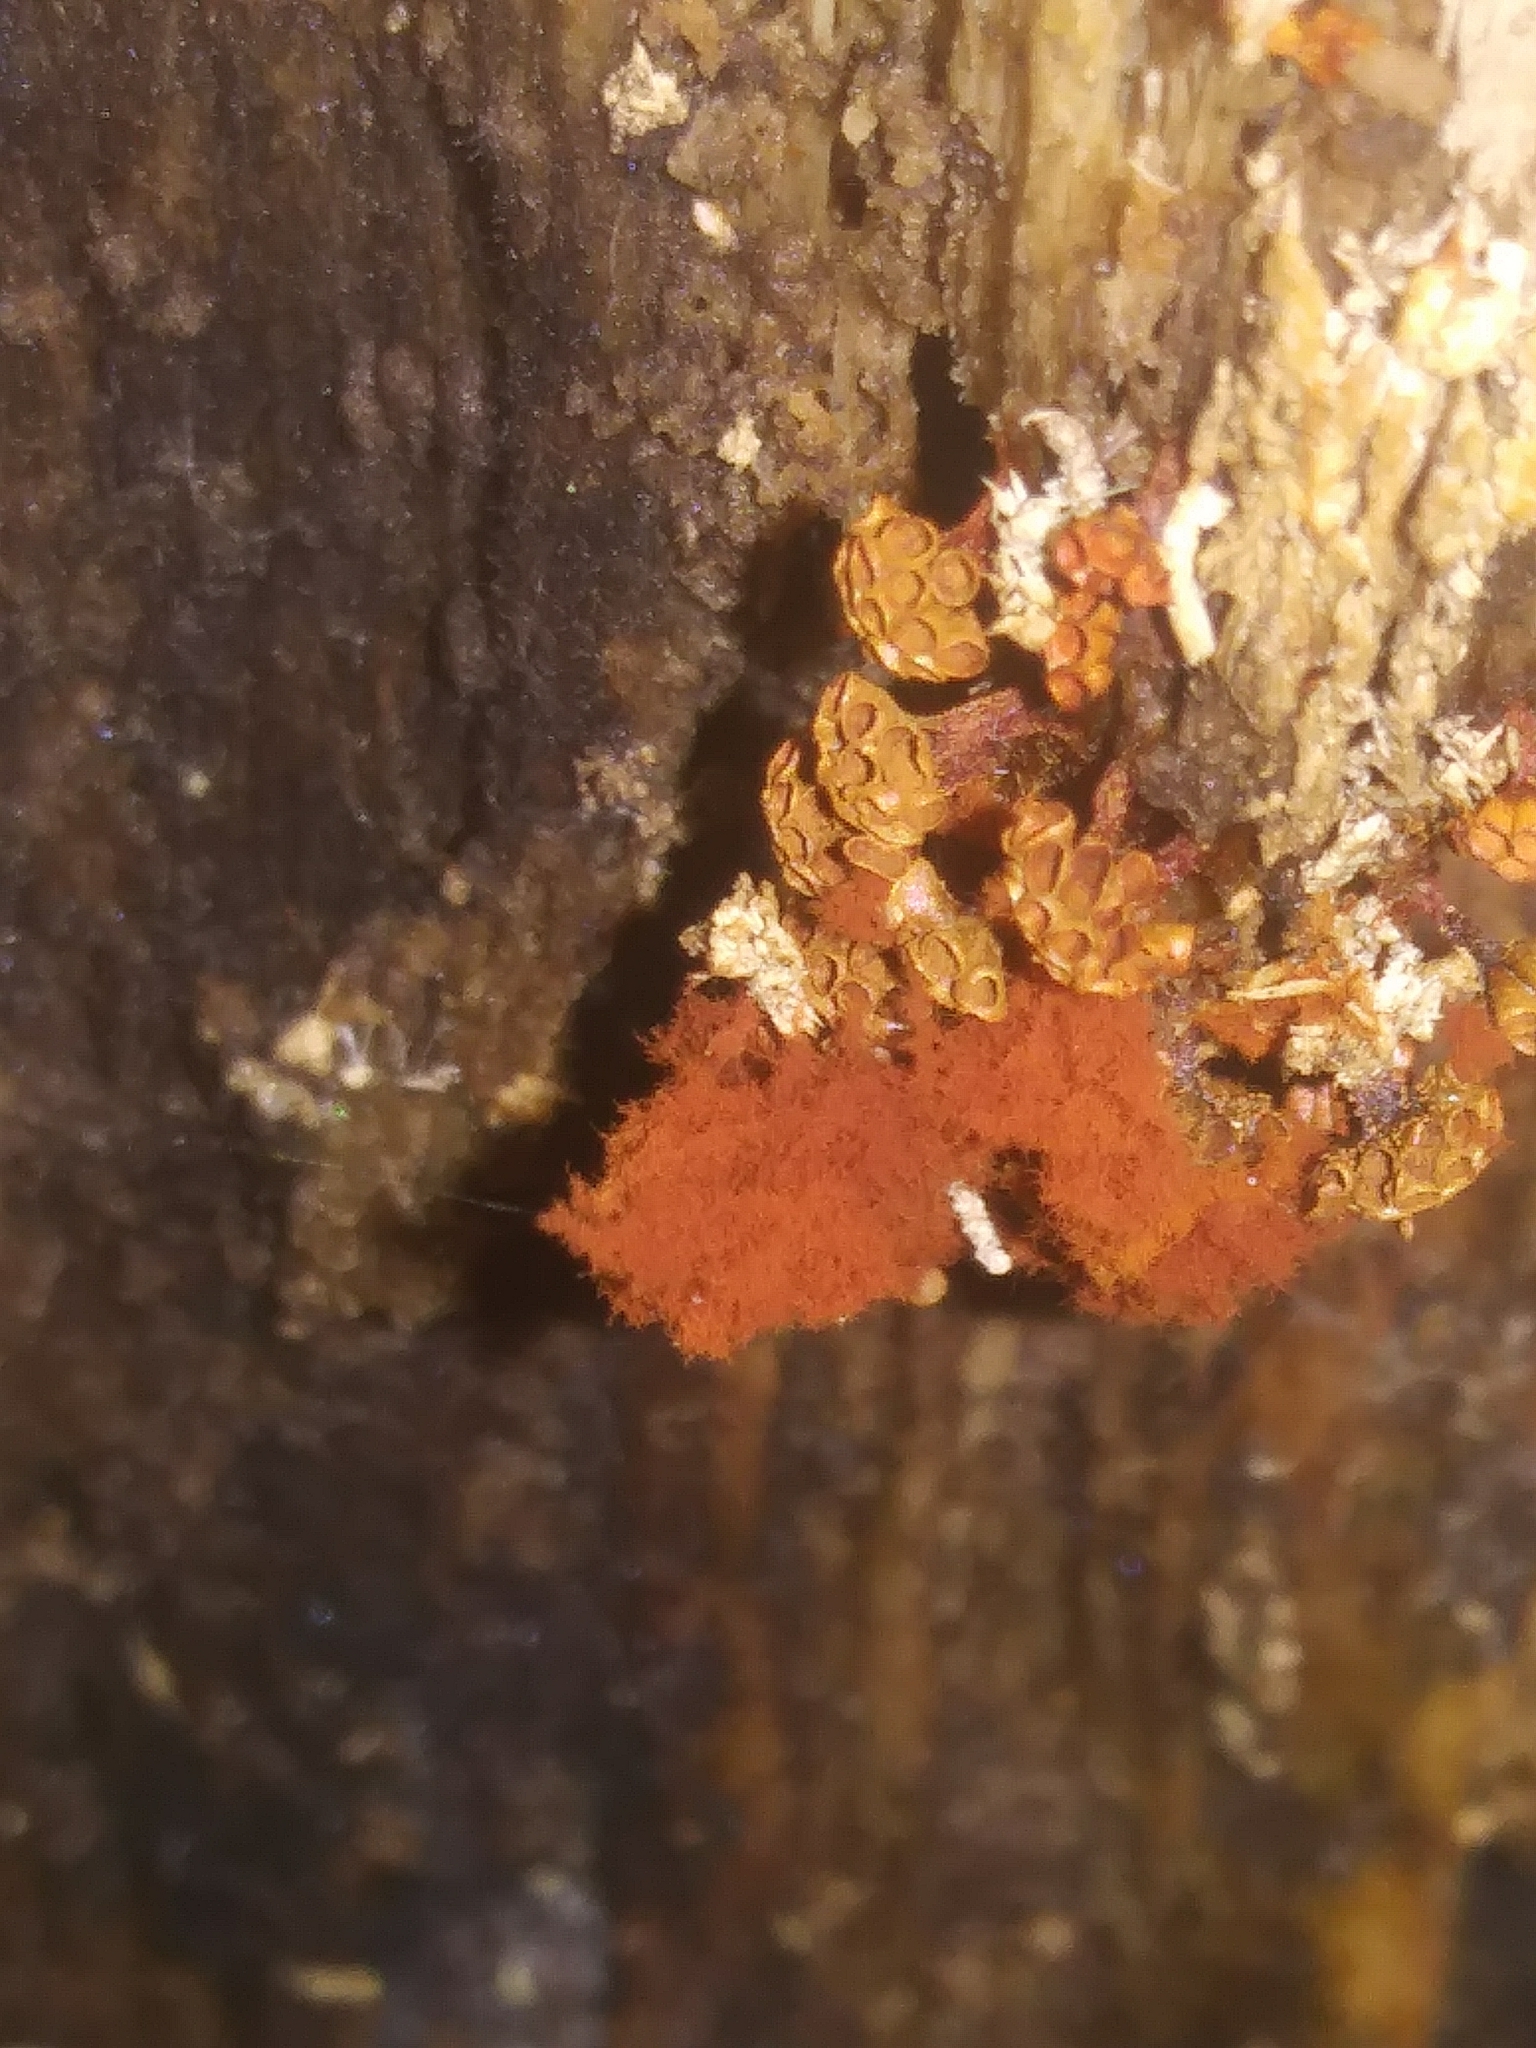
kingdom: Protozoa
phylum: Mycetozoa
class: Myxomycetes
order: Trichiales
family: Trichiaceae
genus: Metatrichia
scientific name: Metatrichia vesparia
